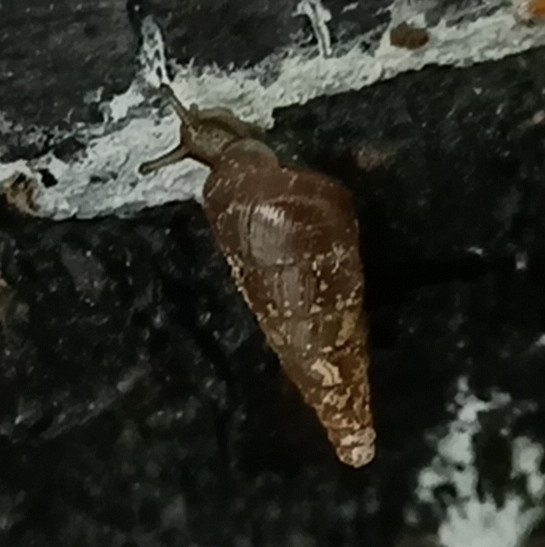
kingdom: Animalia
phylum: Mollusca
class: Gastropoda
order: Stylommatophora
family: Clausiliidae
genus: Cochlodina
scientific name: Cochlodina laminata
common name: Plaited door snail
